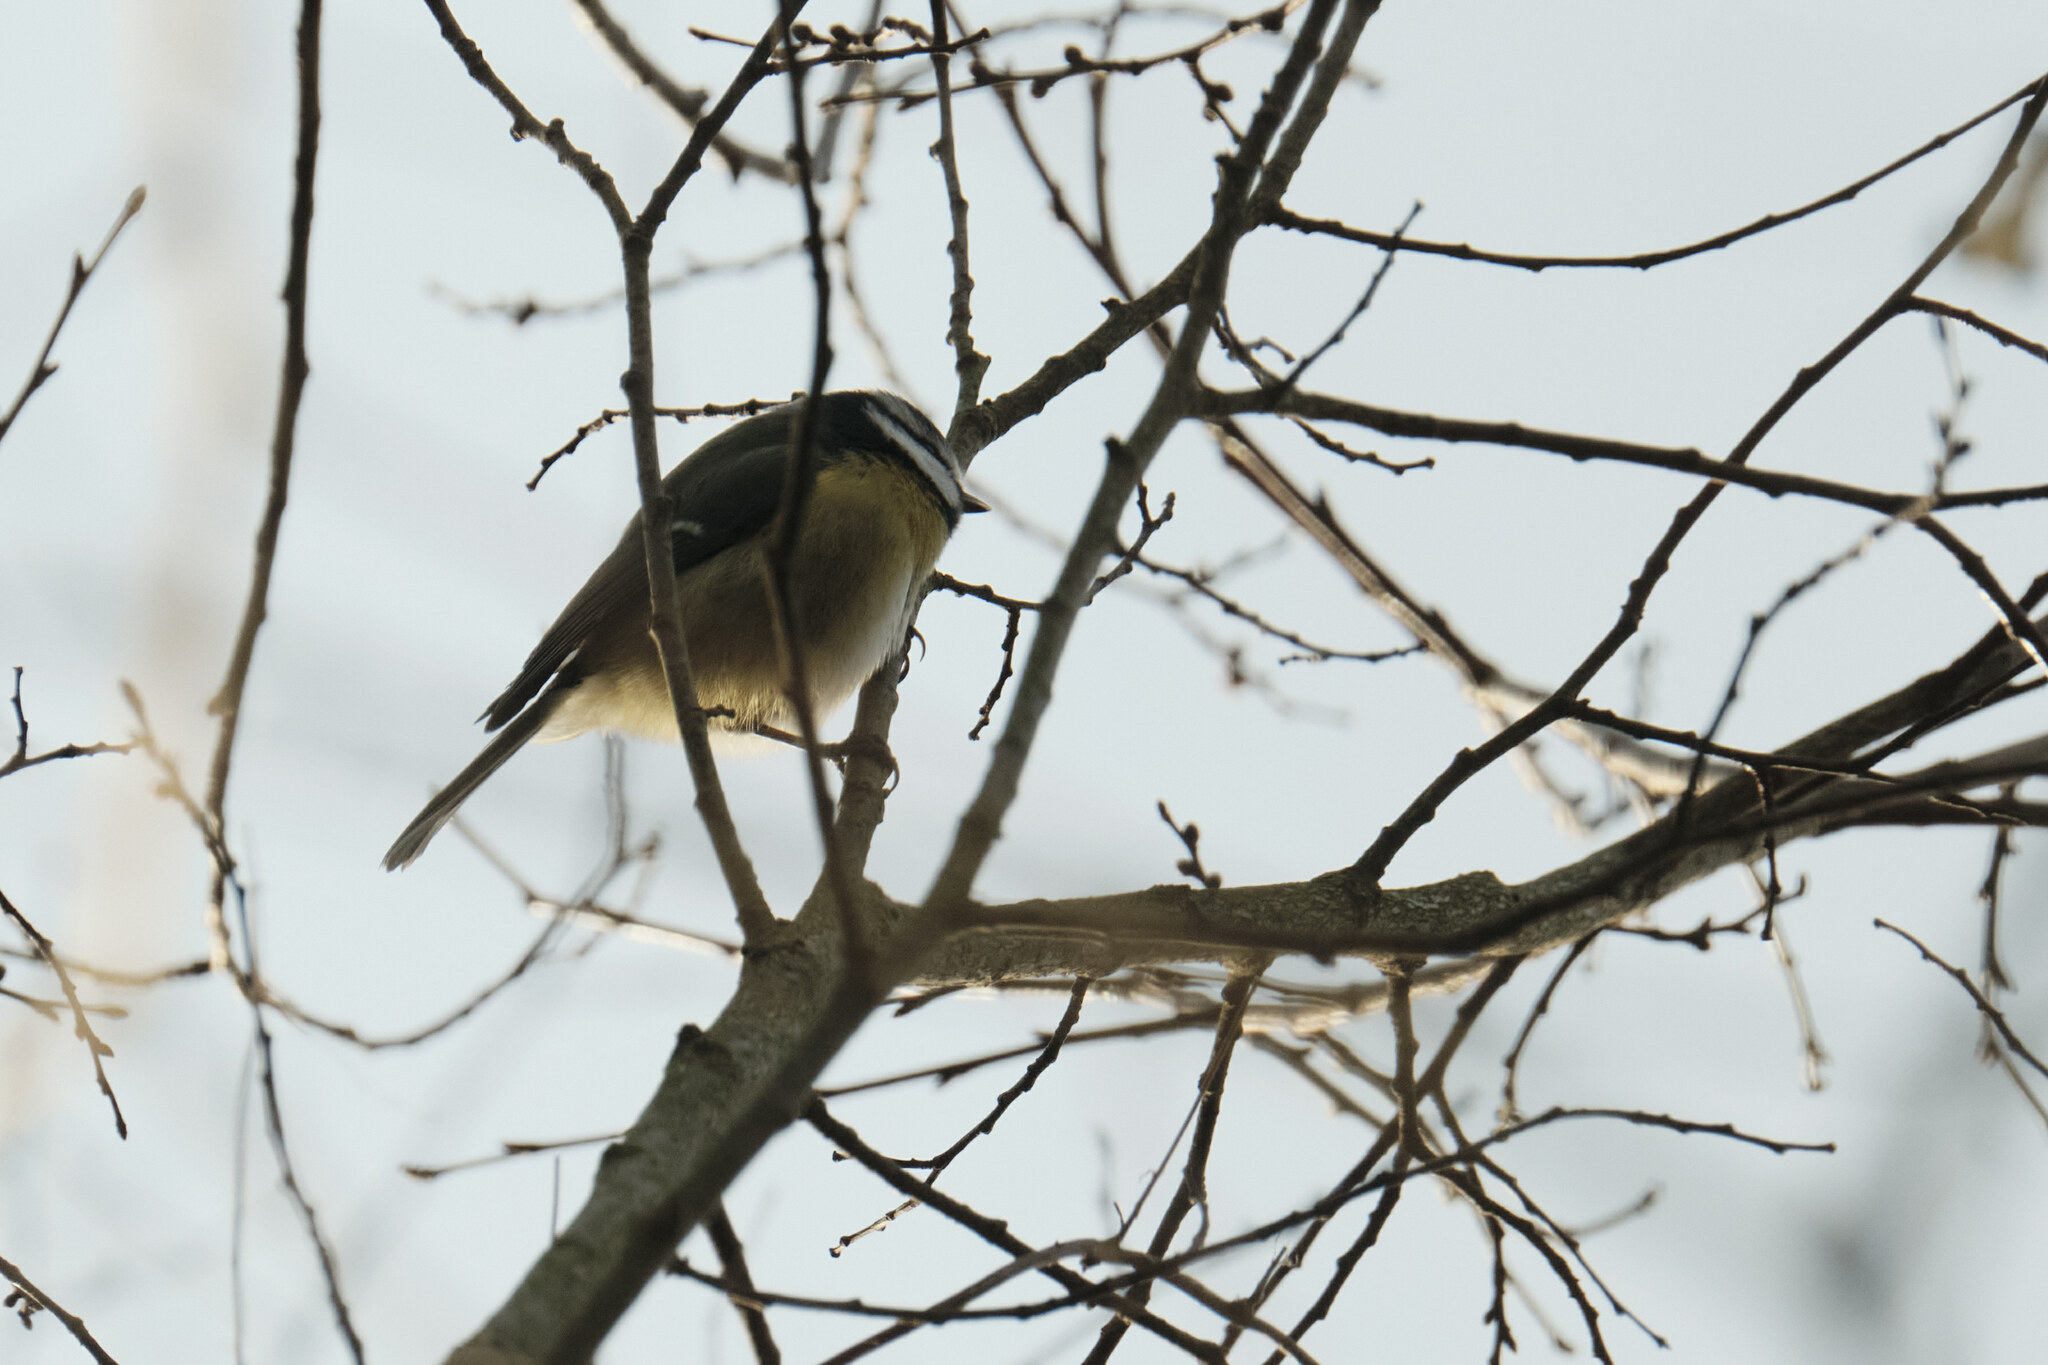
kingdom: Animalia
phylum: Chordata
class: Aves
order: Passeriformes
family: Paridae
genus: Cyanistes
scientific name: Cyanistes caeruleus
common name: Eurasian blue tit
